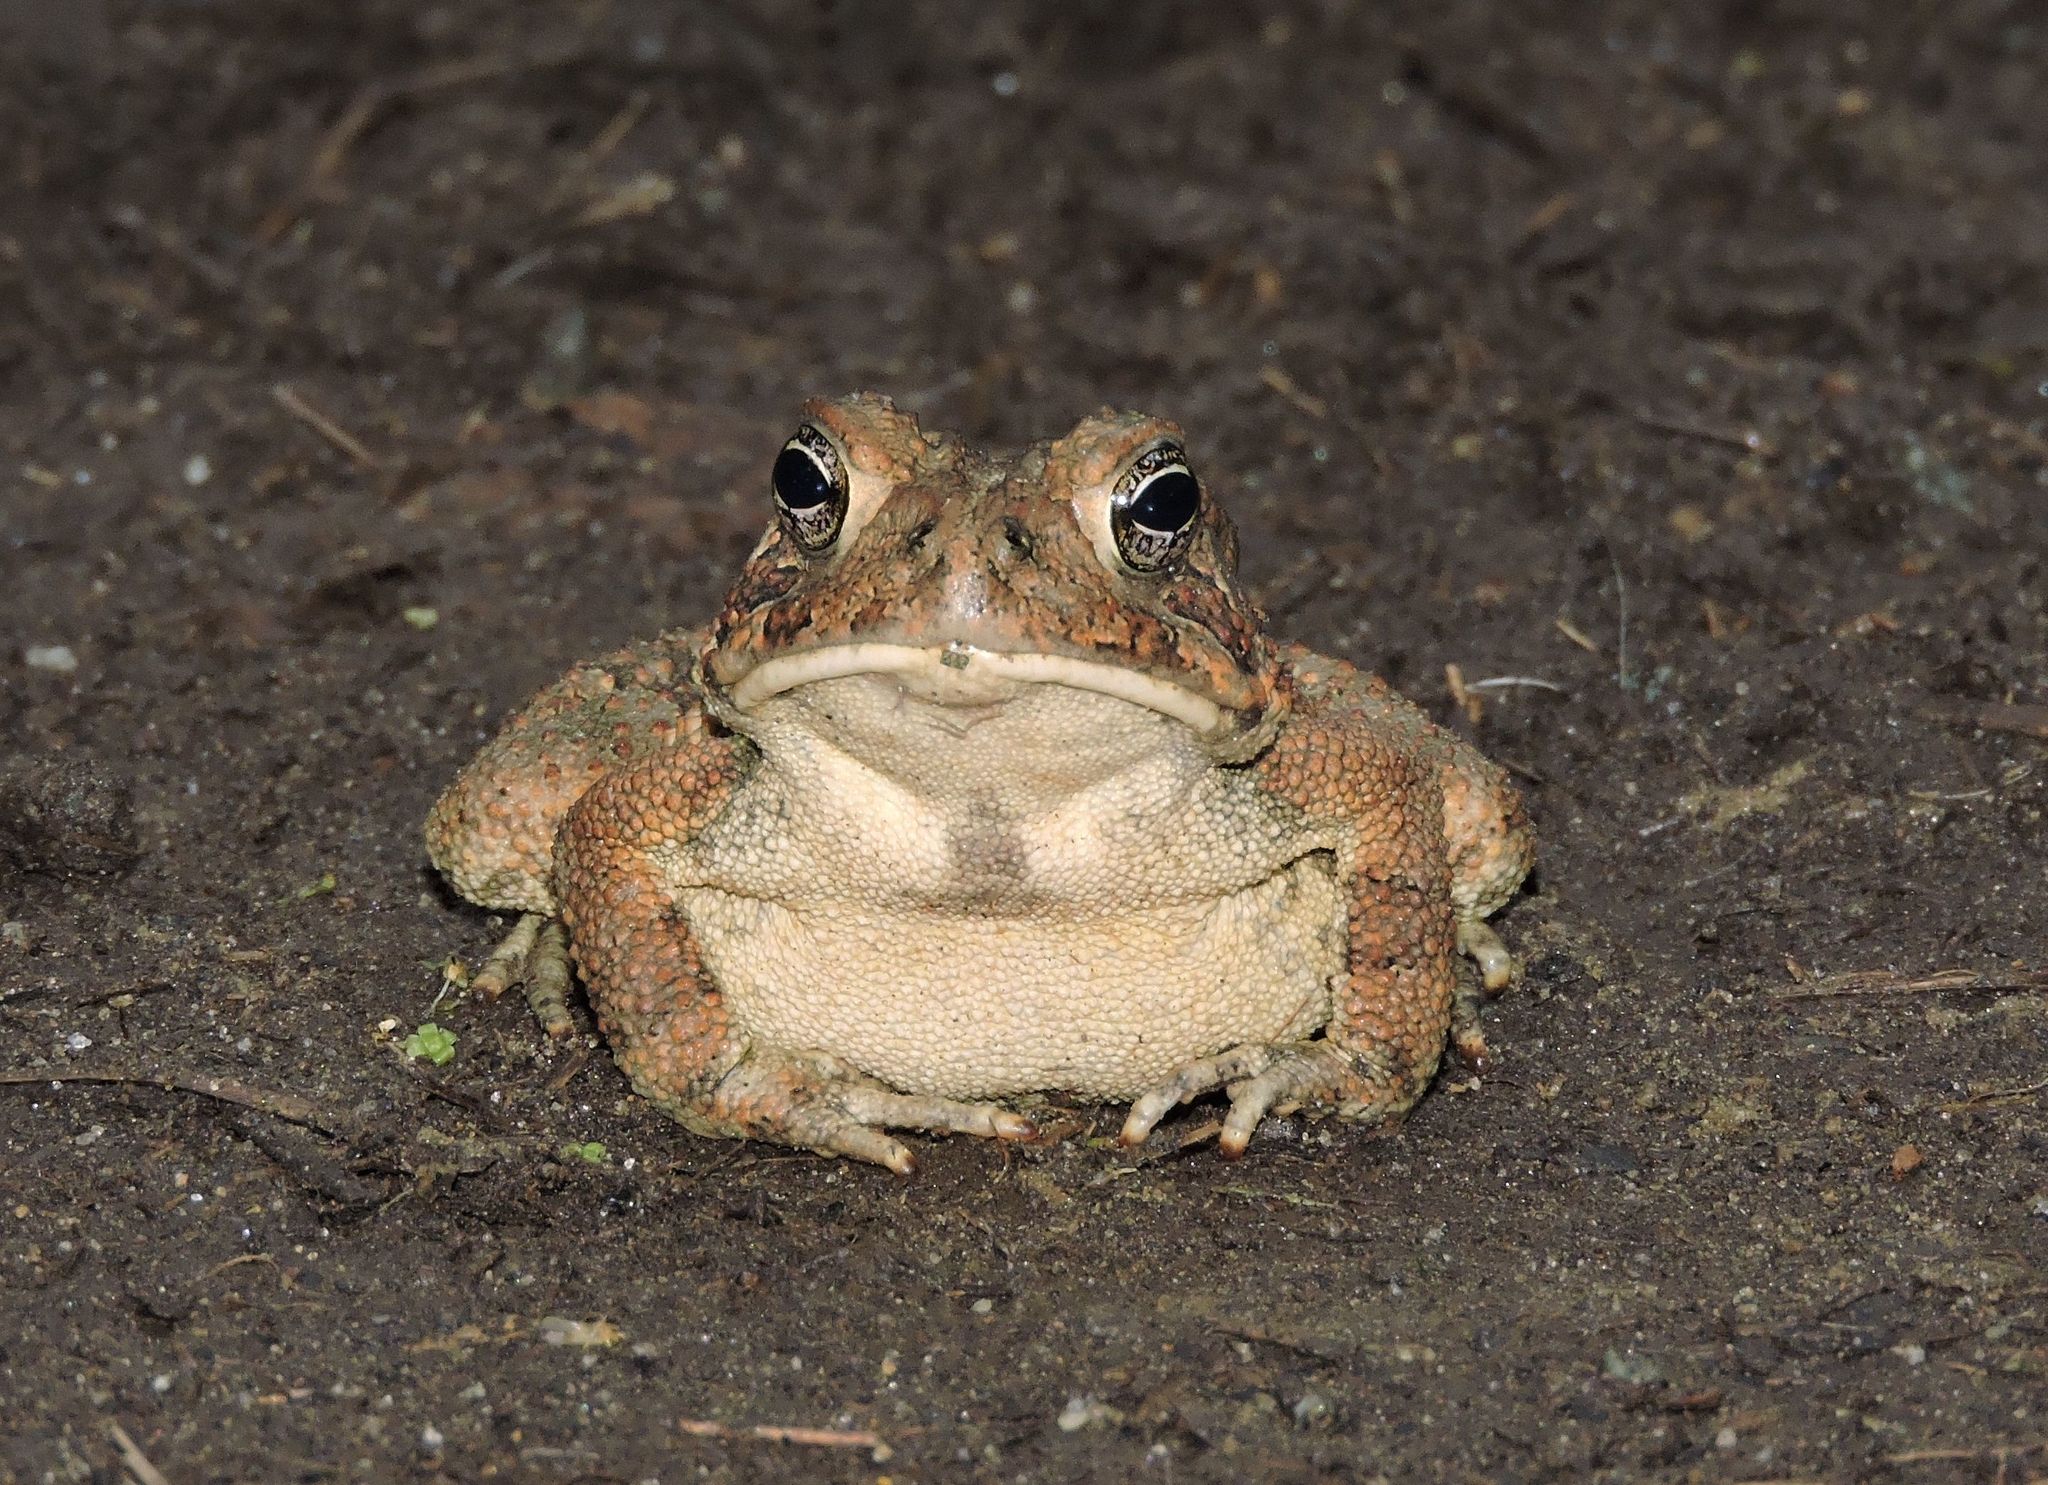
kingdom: Animalia
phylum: Chordata
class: Amphibia
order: Anura
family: Bufonidae
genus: Anaxyrus
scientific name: Anaxyrus fowleri
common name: Fowler's toad
